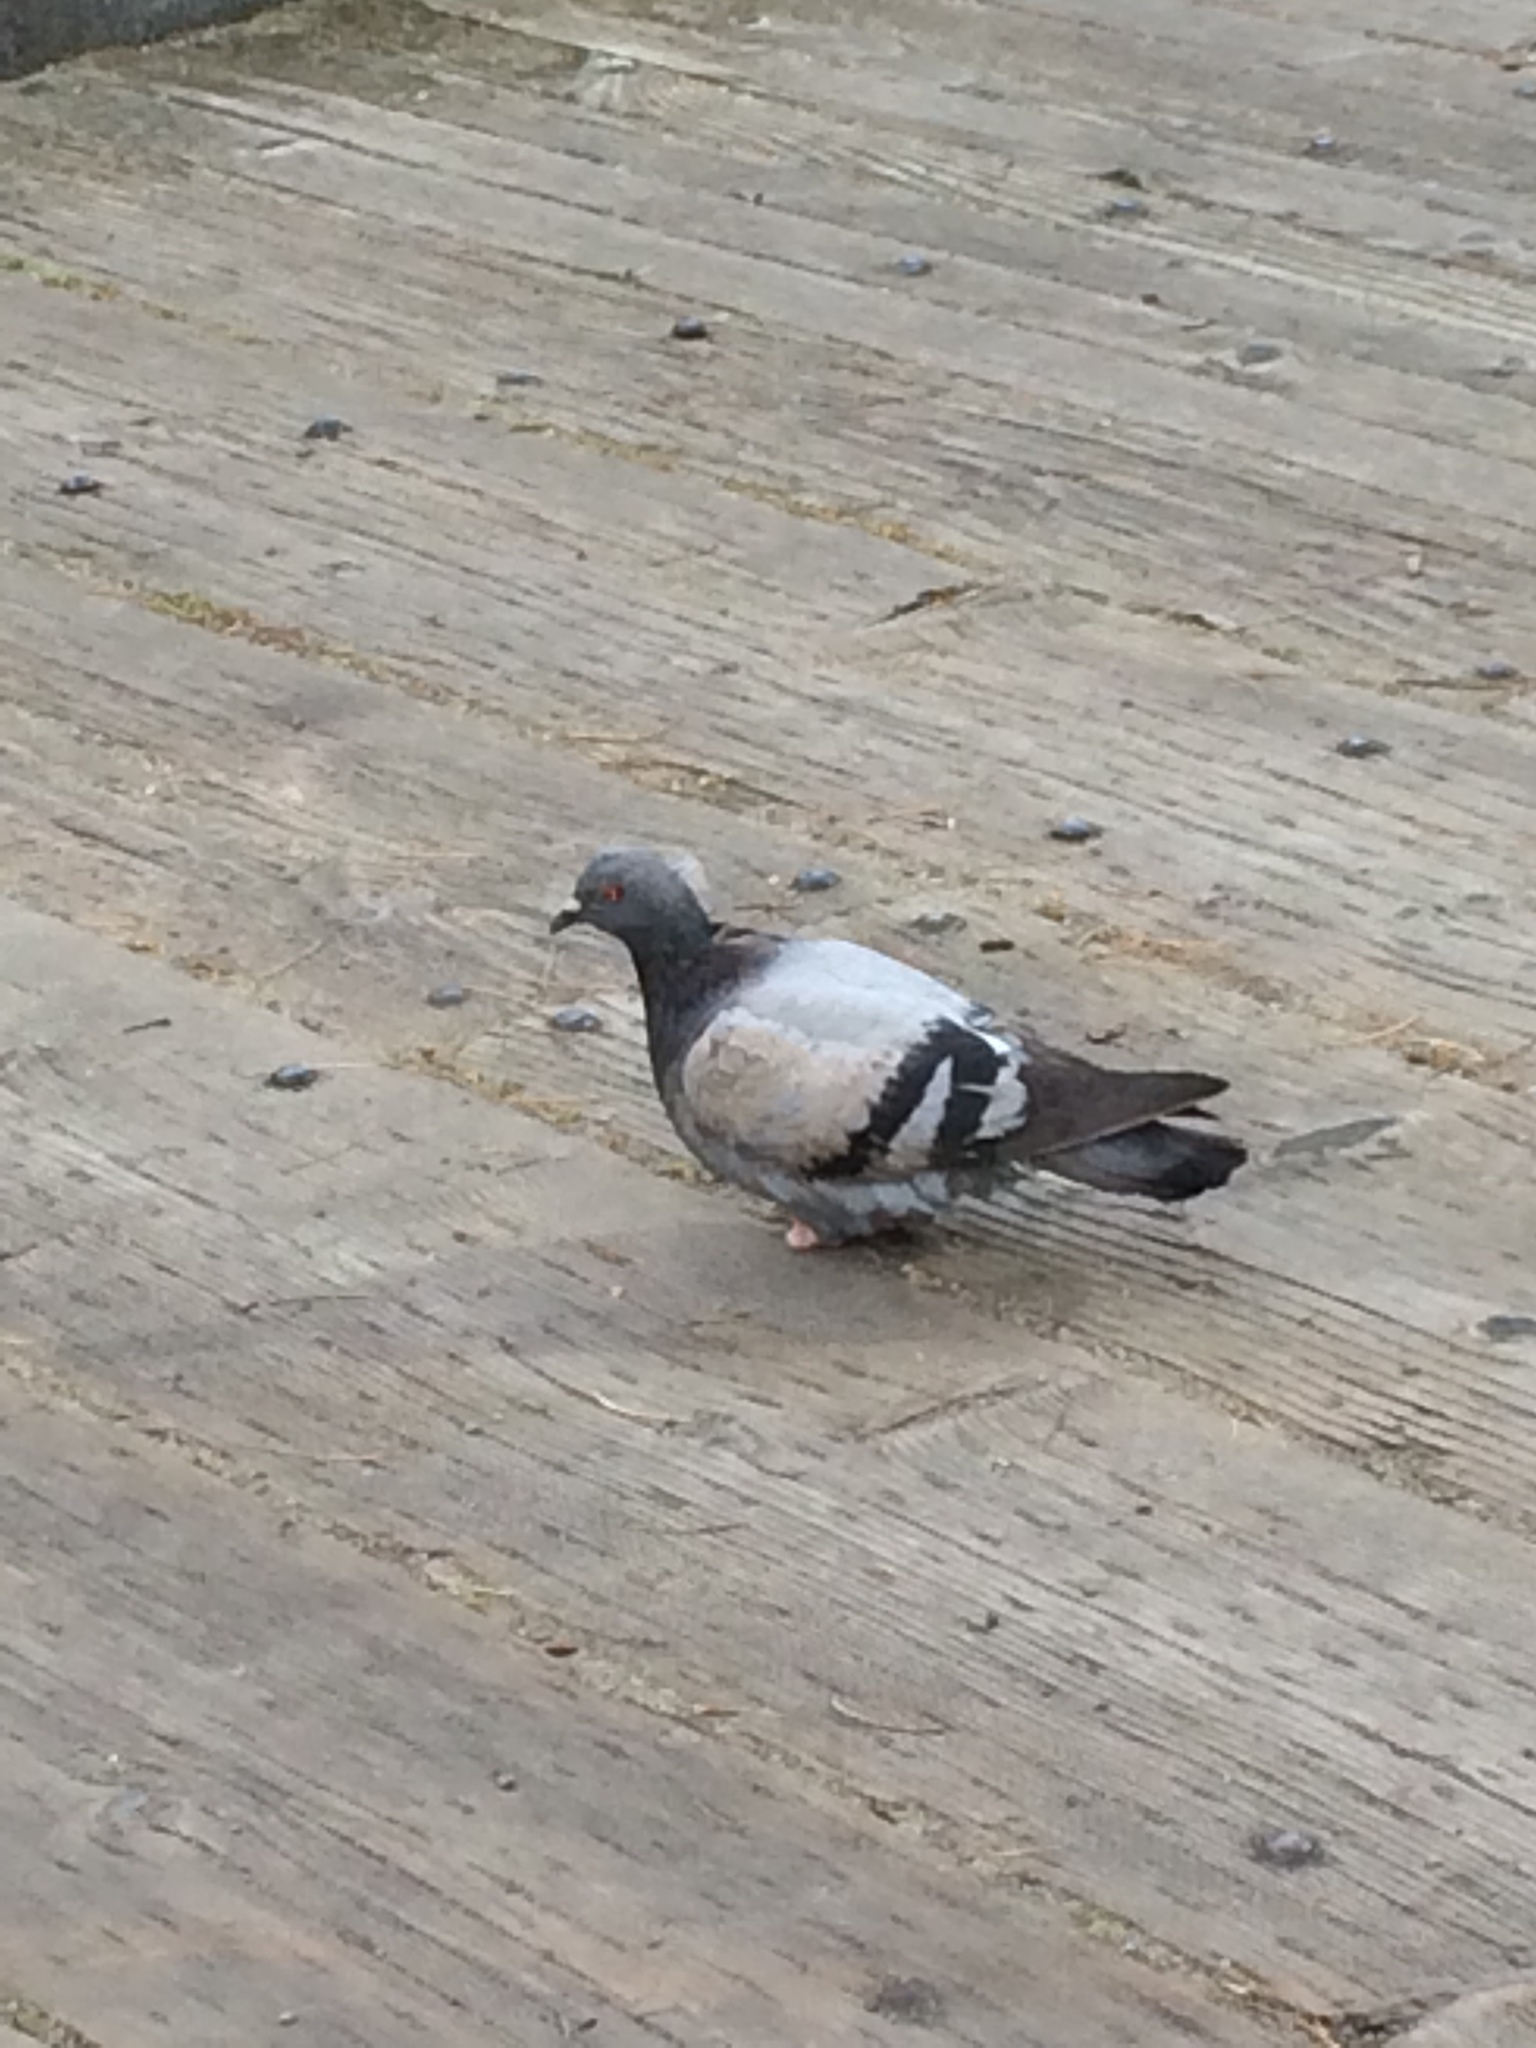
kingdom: Animalia
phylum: Chordata
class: Aves
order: Columbiformes
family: Columbidae
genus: Columba
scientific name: Columba livia
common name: Rock pigeon
